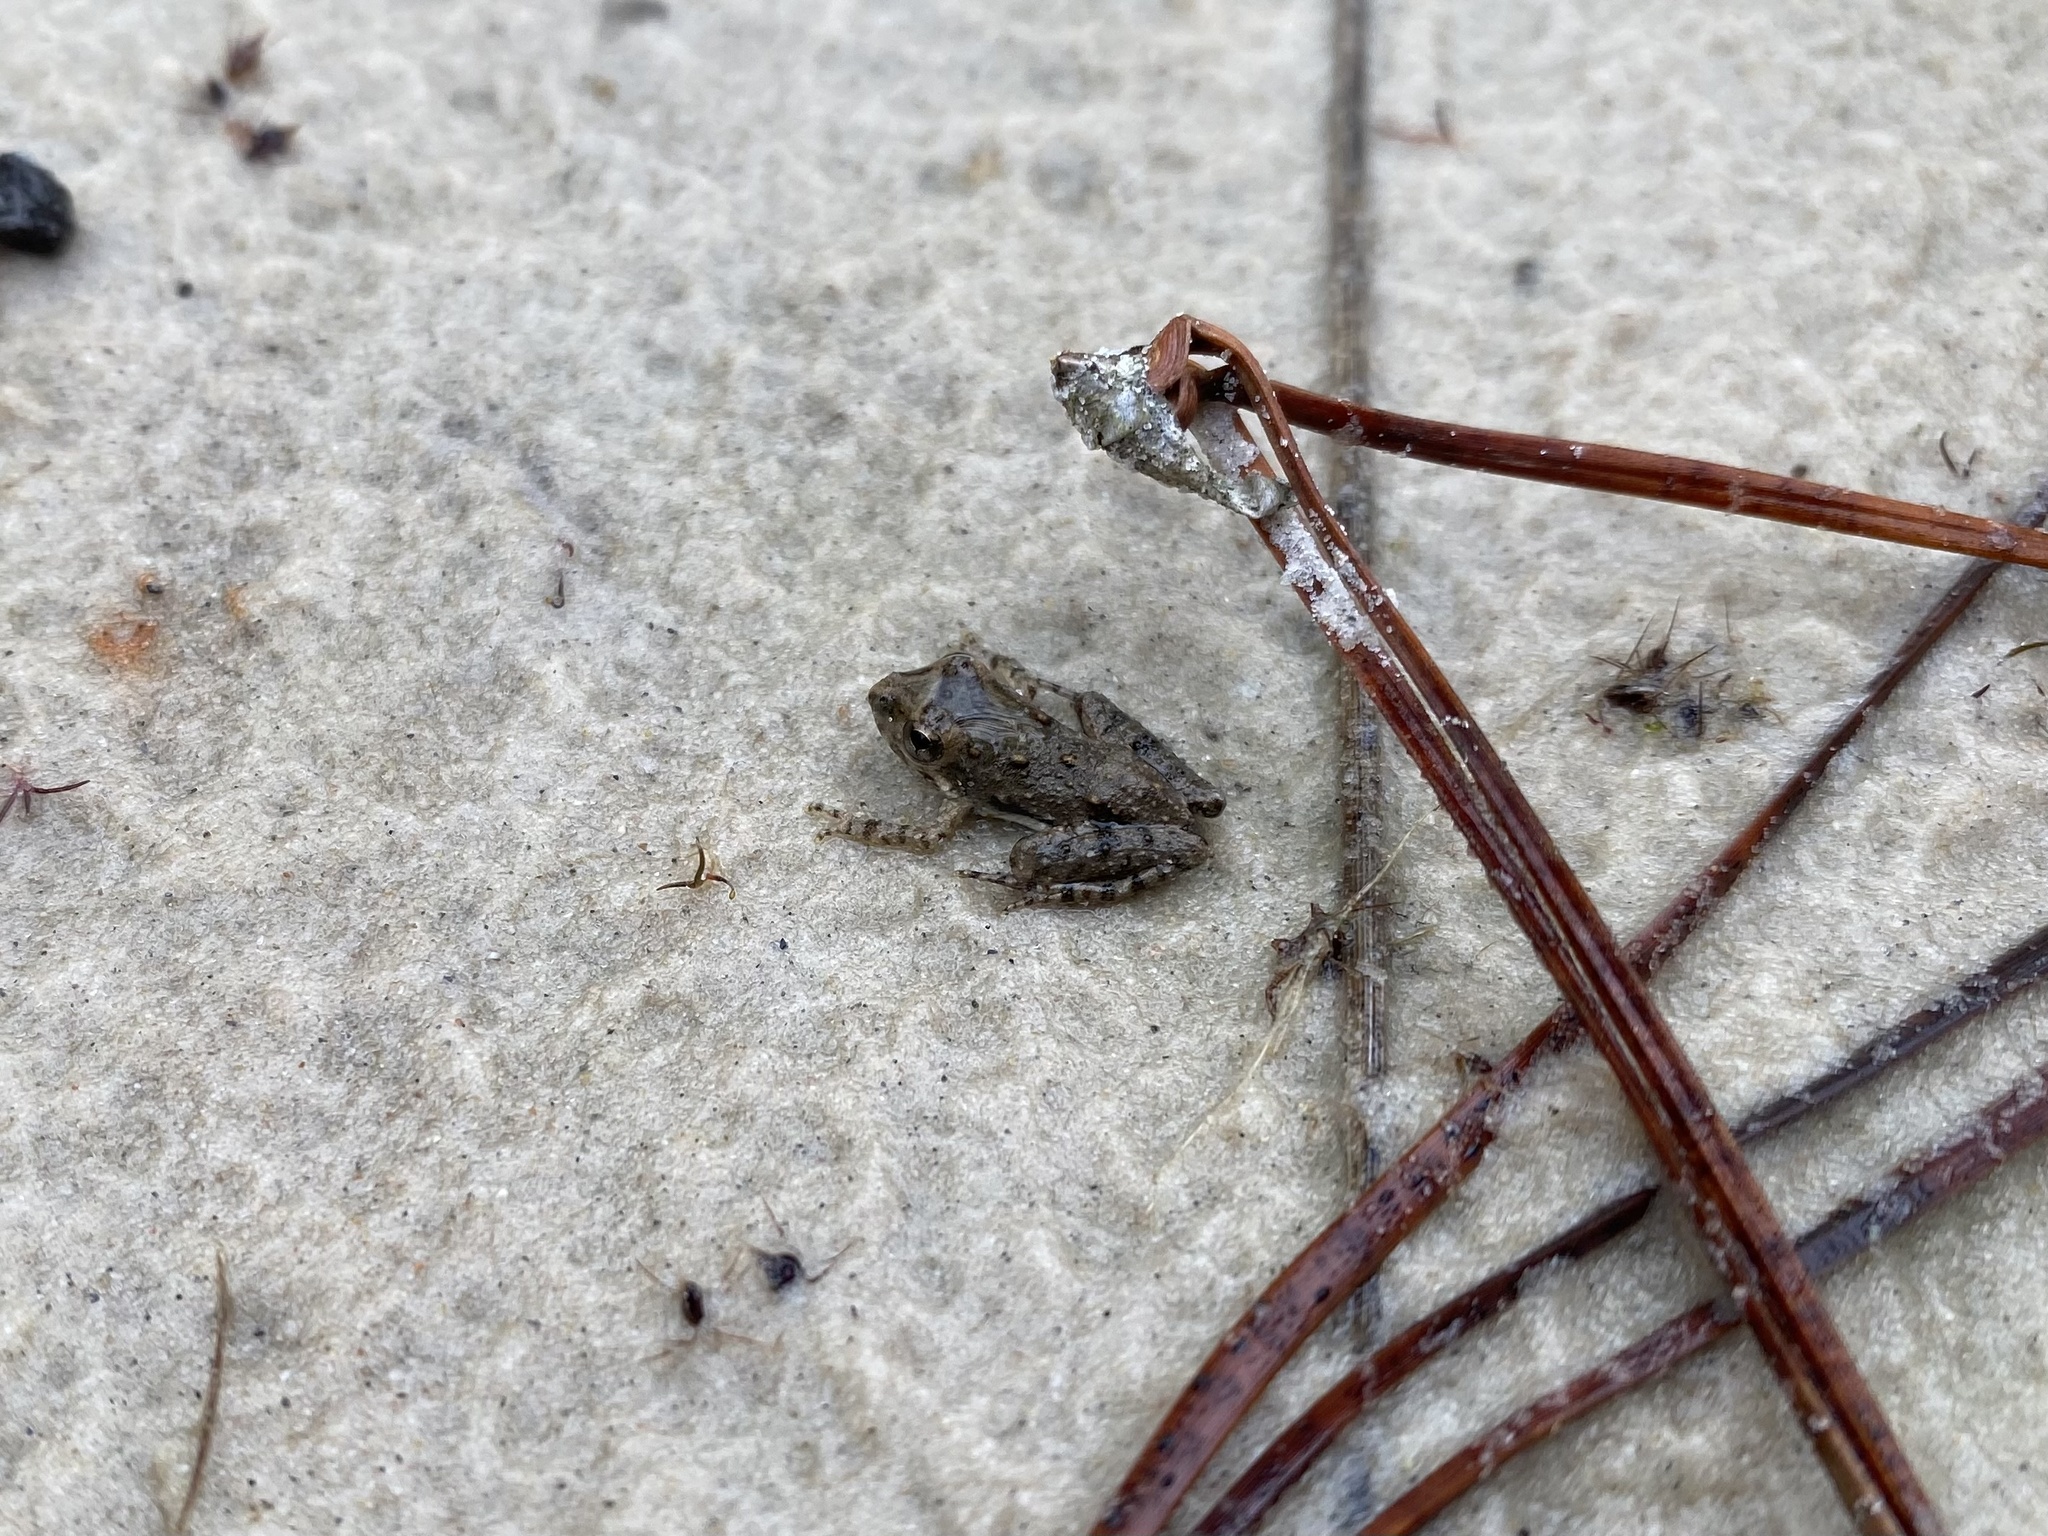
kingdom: Animalia
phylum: Chordata
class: Amphibia
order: Anura
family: Hylidae
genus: Acris
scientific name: Acris blanchardi
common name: Blanchard's cricket frog
